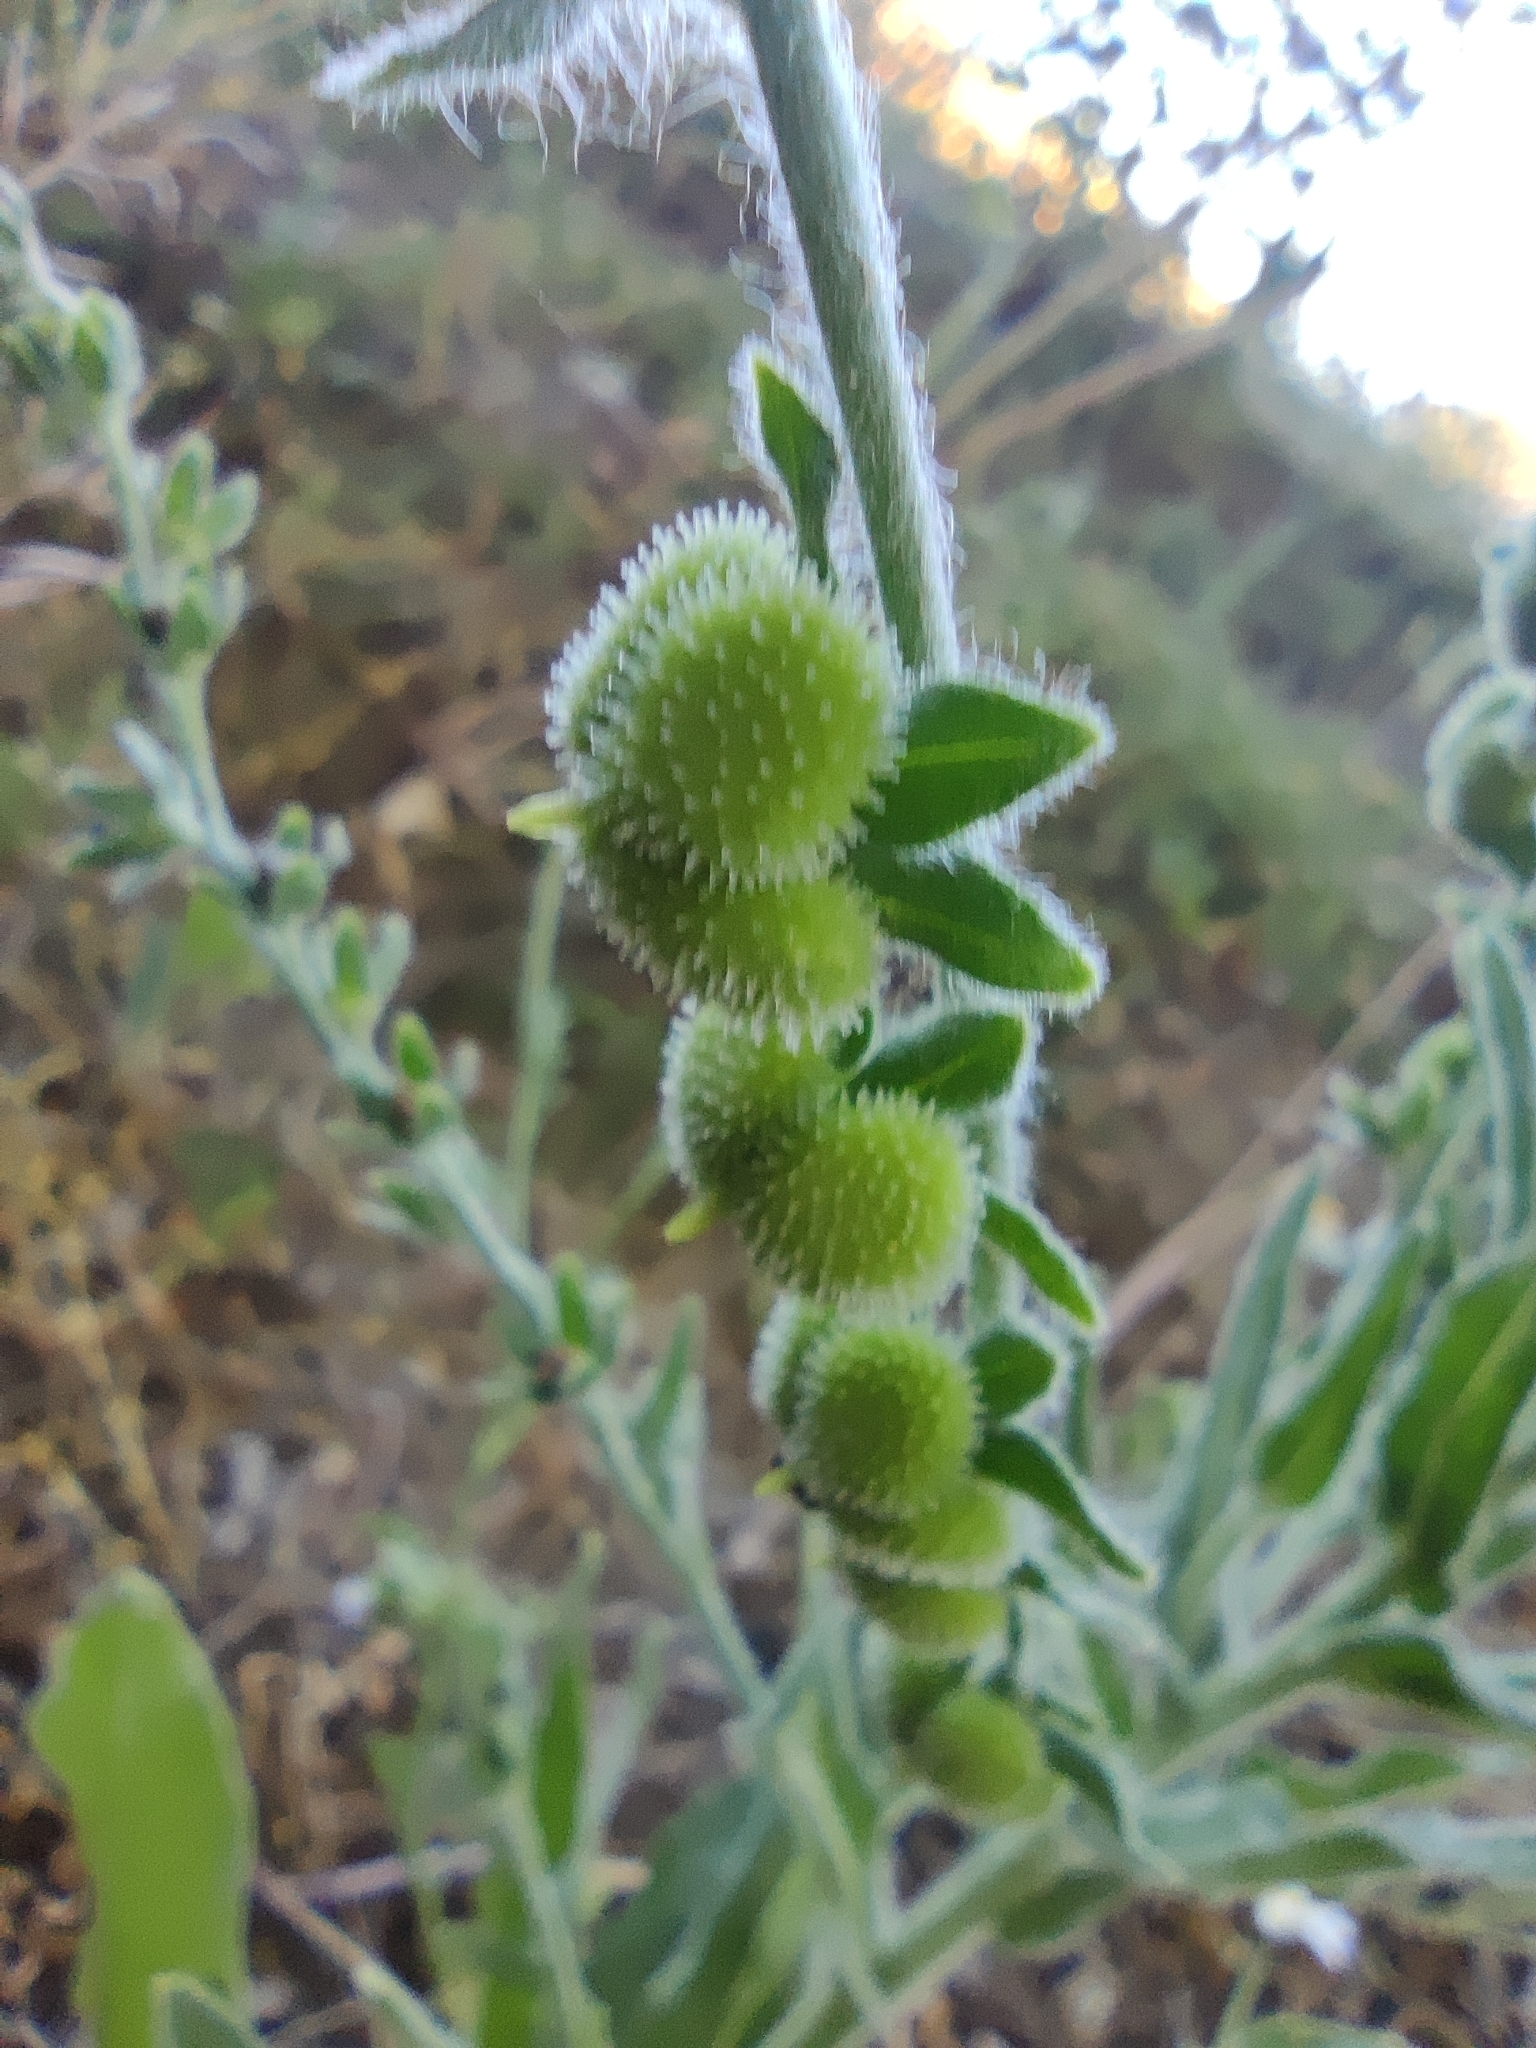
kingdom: Plantae
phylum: Tracheophyta
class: Magnoliopsida
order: Boraginales
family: Boraginaceae
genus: Cynoglossum
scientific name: Cynoglossum creticum
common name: Blue hound's tongue
